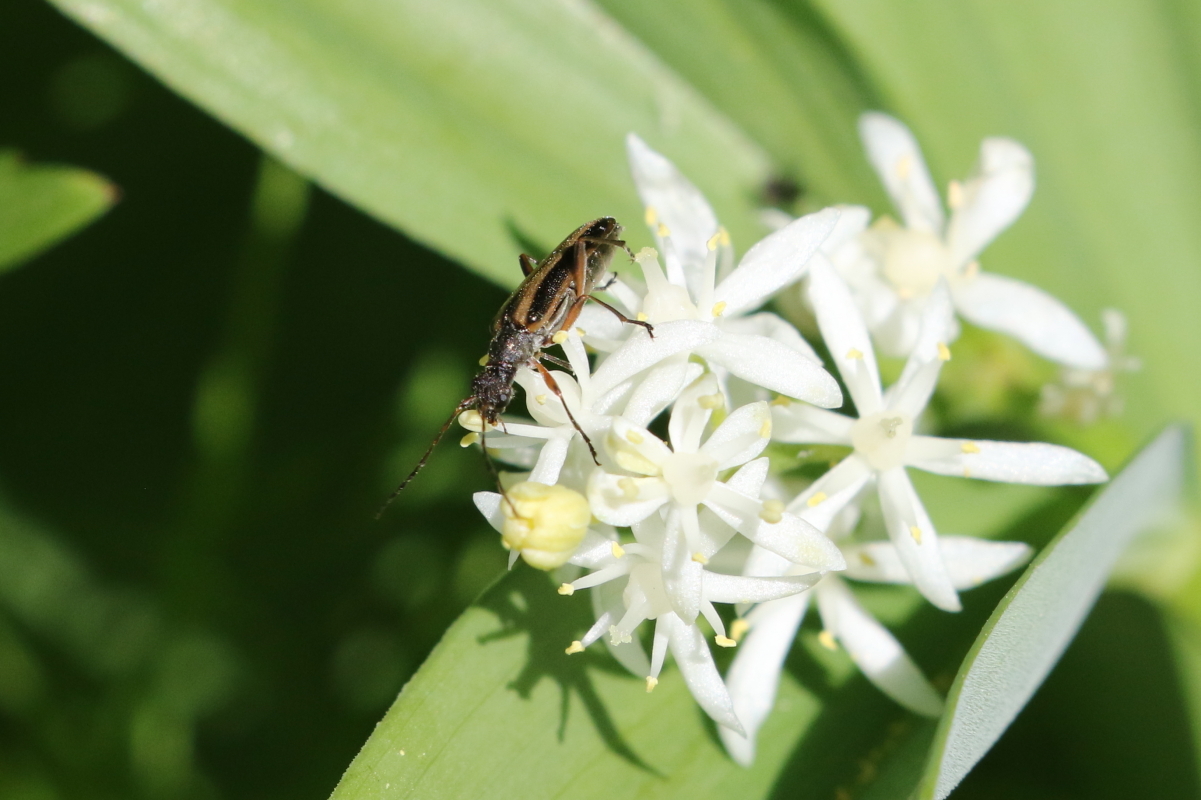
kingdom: Animalia
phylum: Arthropoda
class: Insecta
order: Coleoptera
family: Cerambycidae
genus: Analeptura
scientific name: Analeptura lineola
